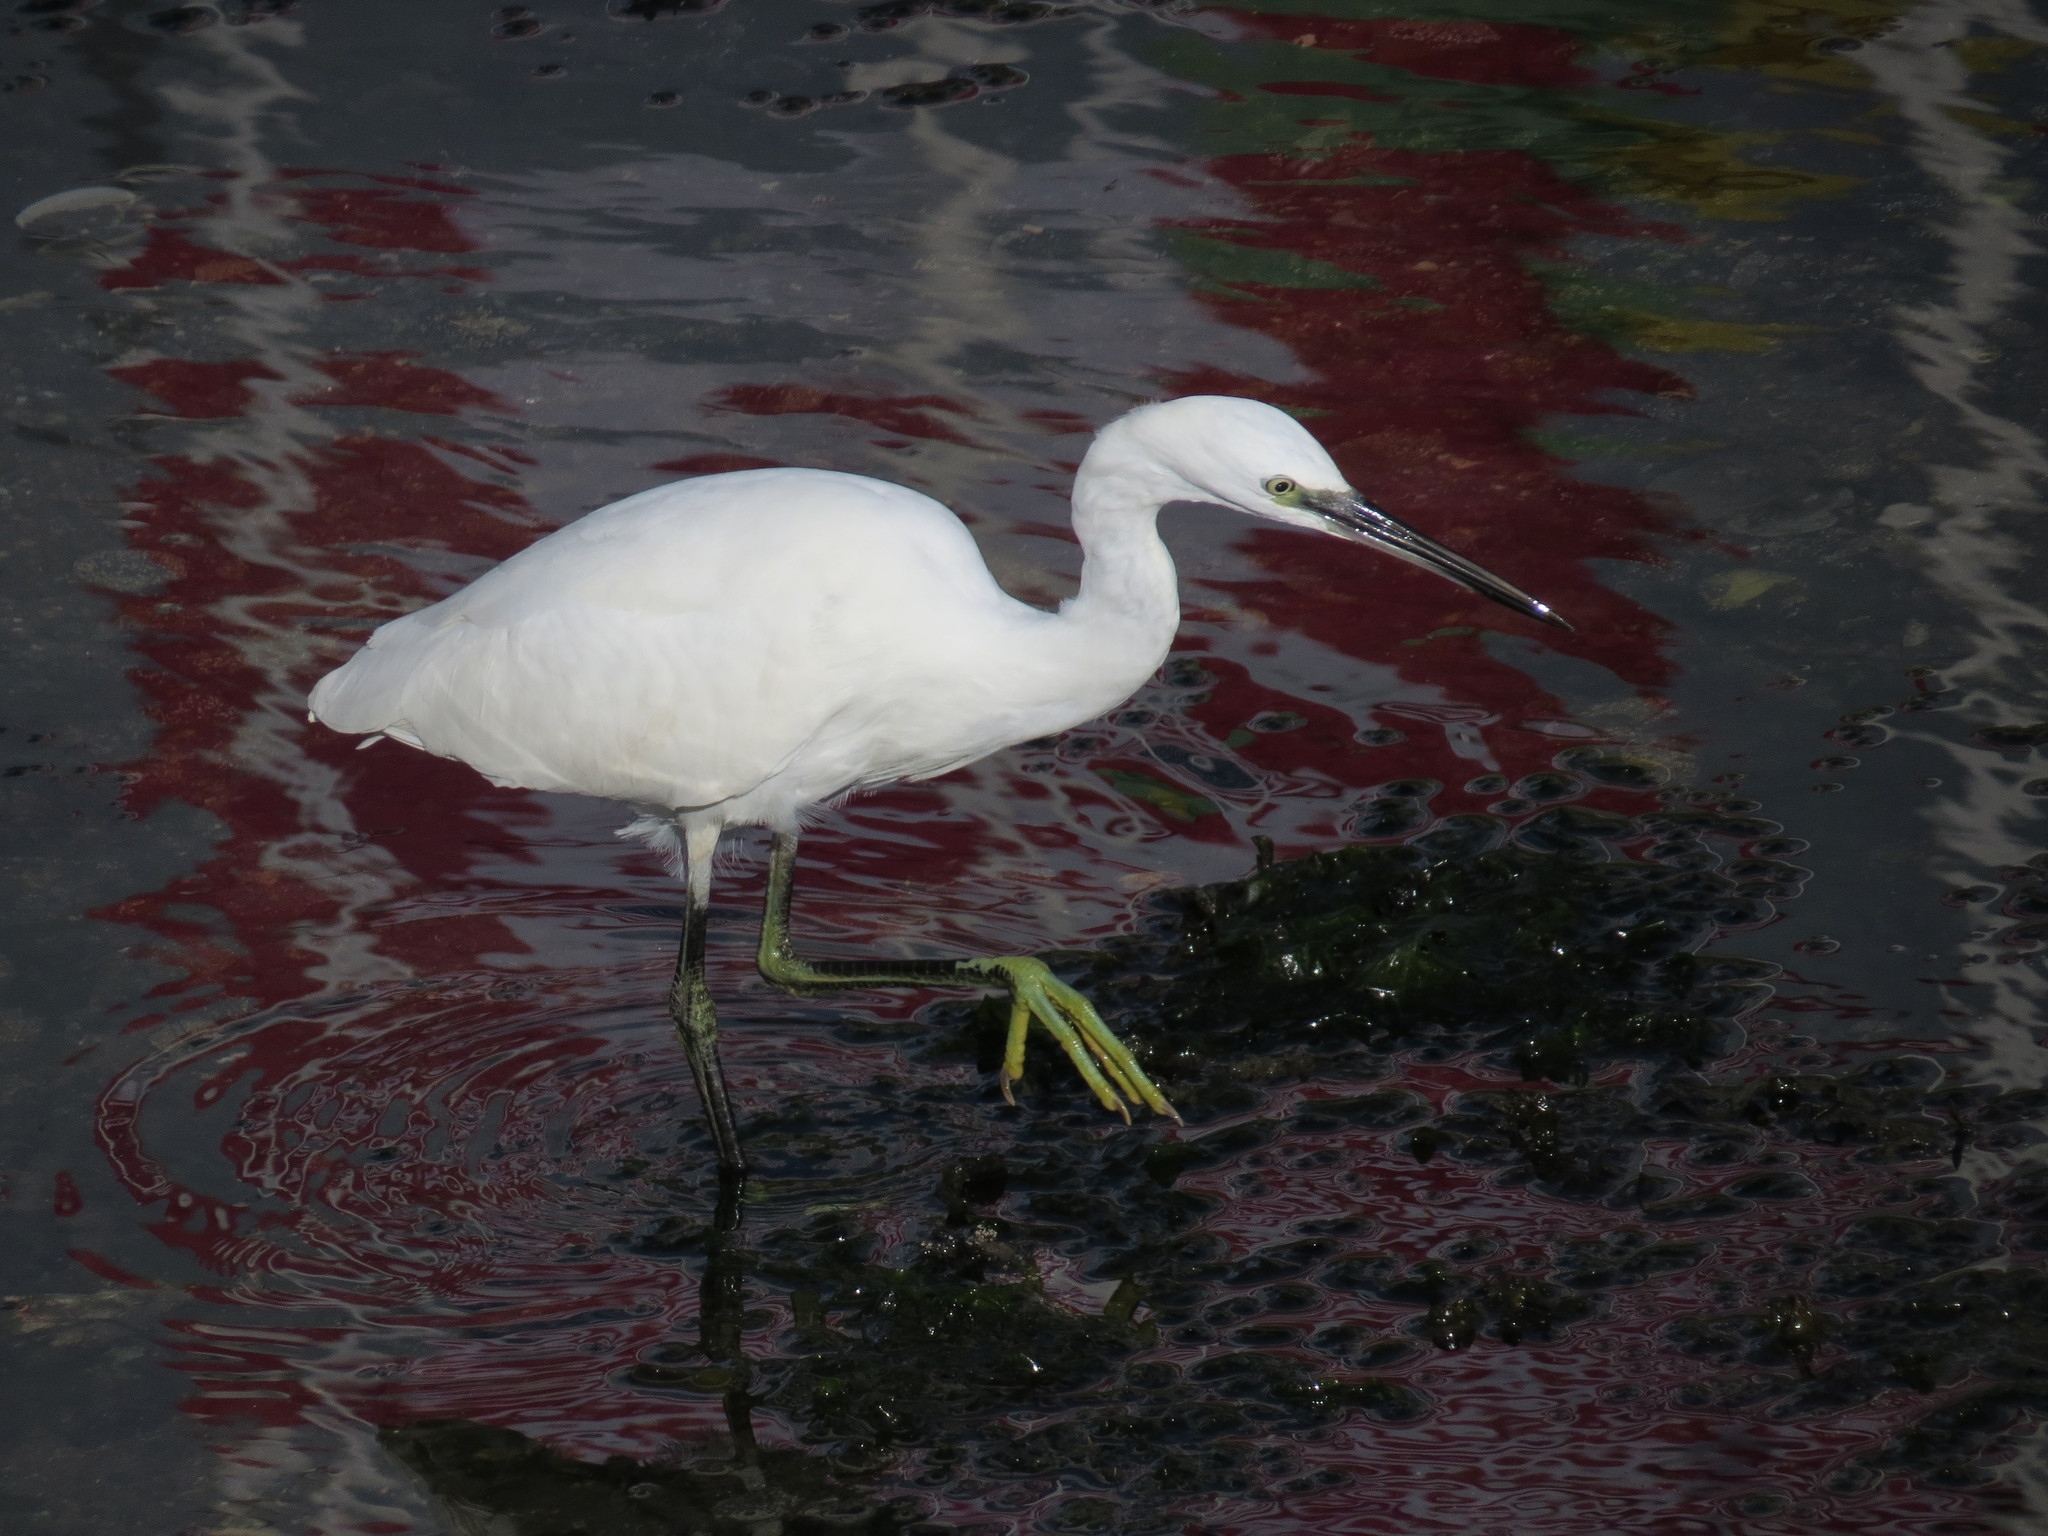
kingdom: Animalia
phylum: Chordata
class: Aves
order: Pelecaniformes
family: Ardeidae
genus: Egretta
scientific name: Egretta garzetta
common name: Little egret
